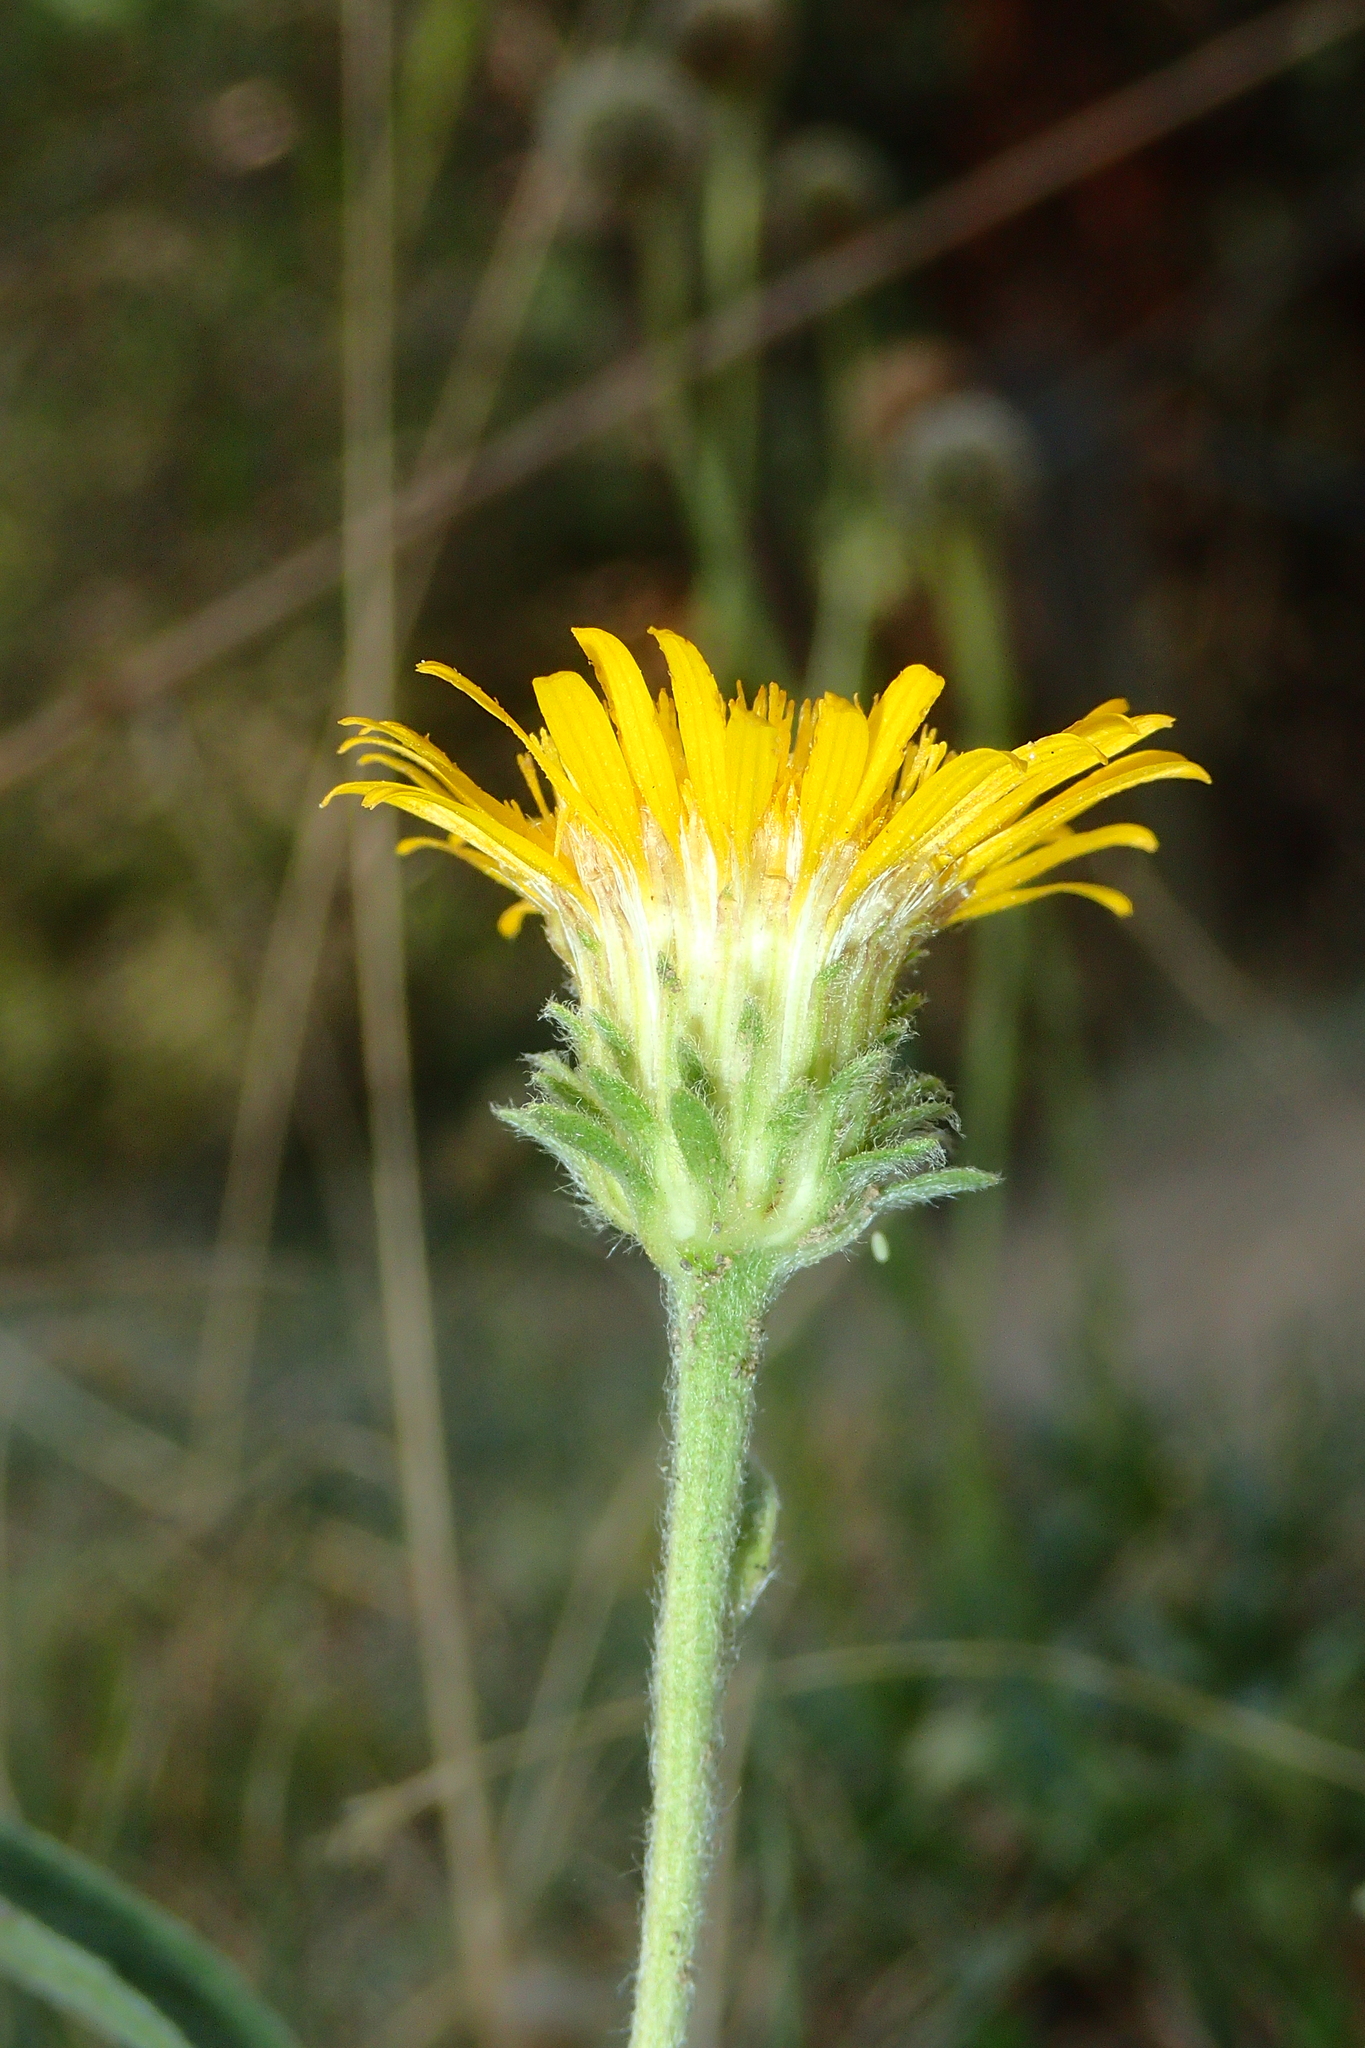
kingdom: Plantae
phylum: Tracheophyta
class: Magnoliopsida
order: Asterales
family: Asteraceae
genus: Pentanema
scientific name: Pentanema montanum
